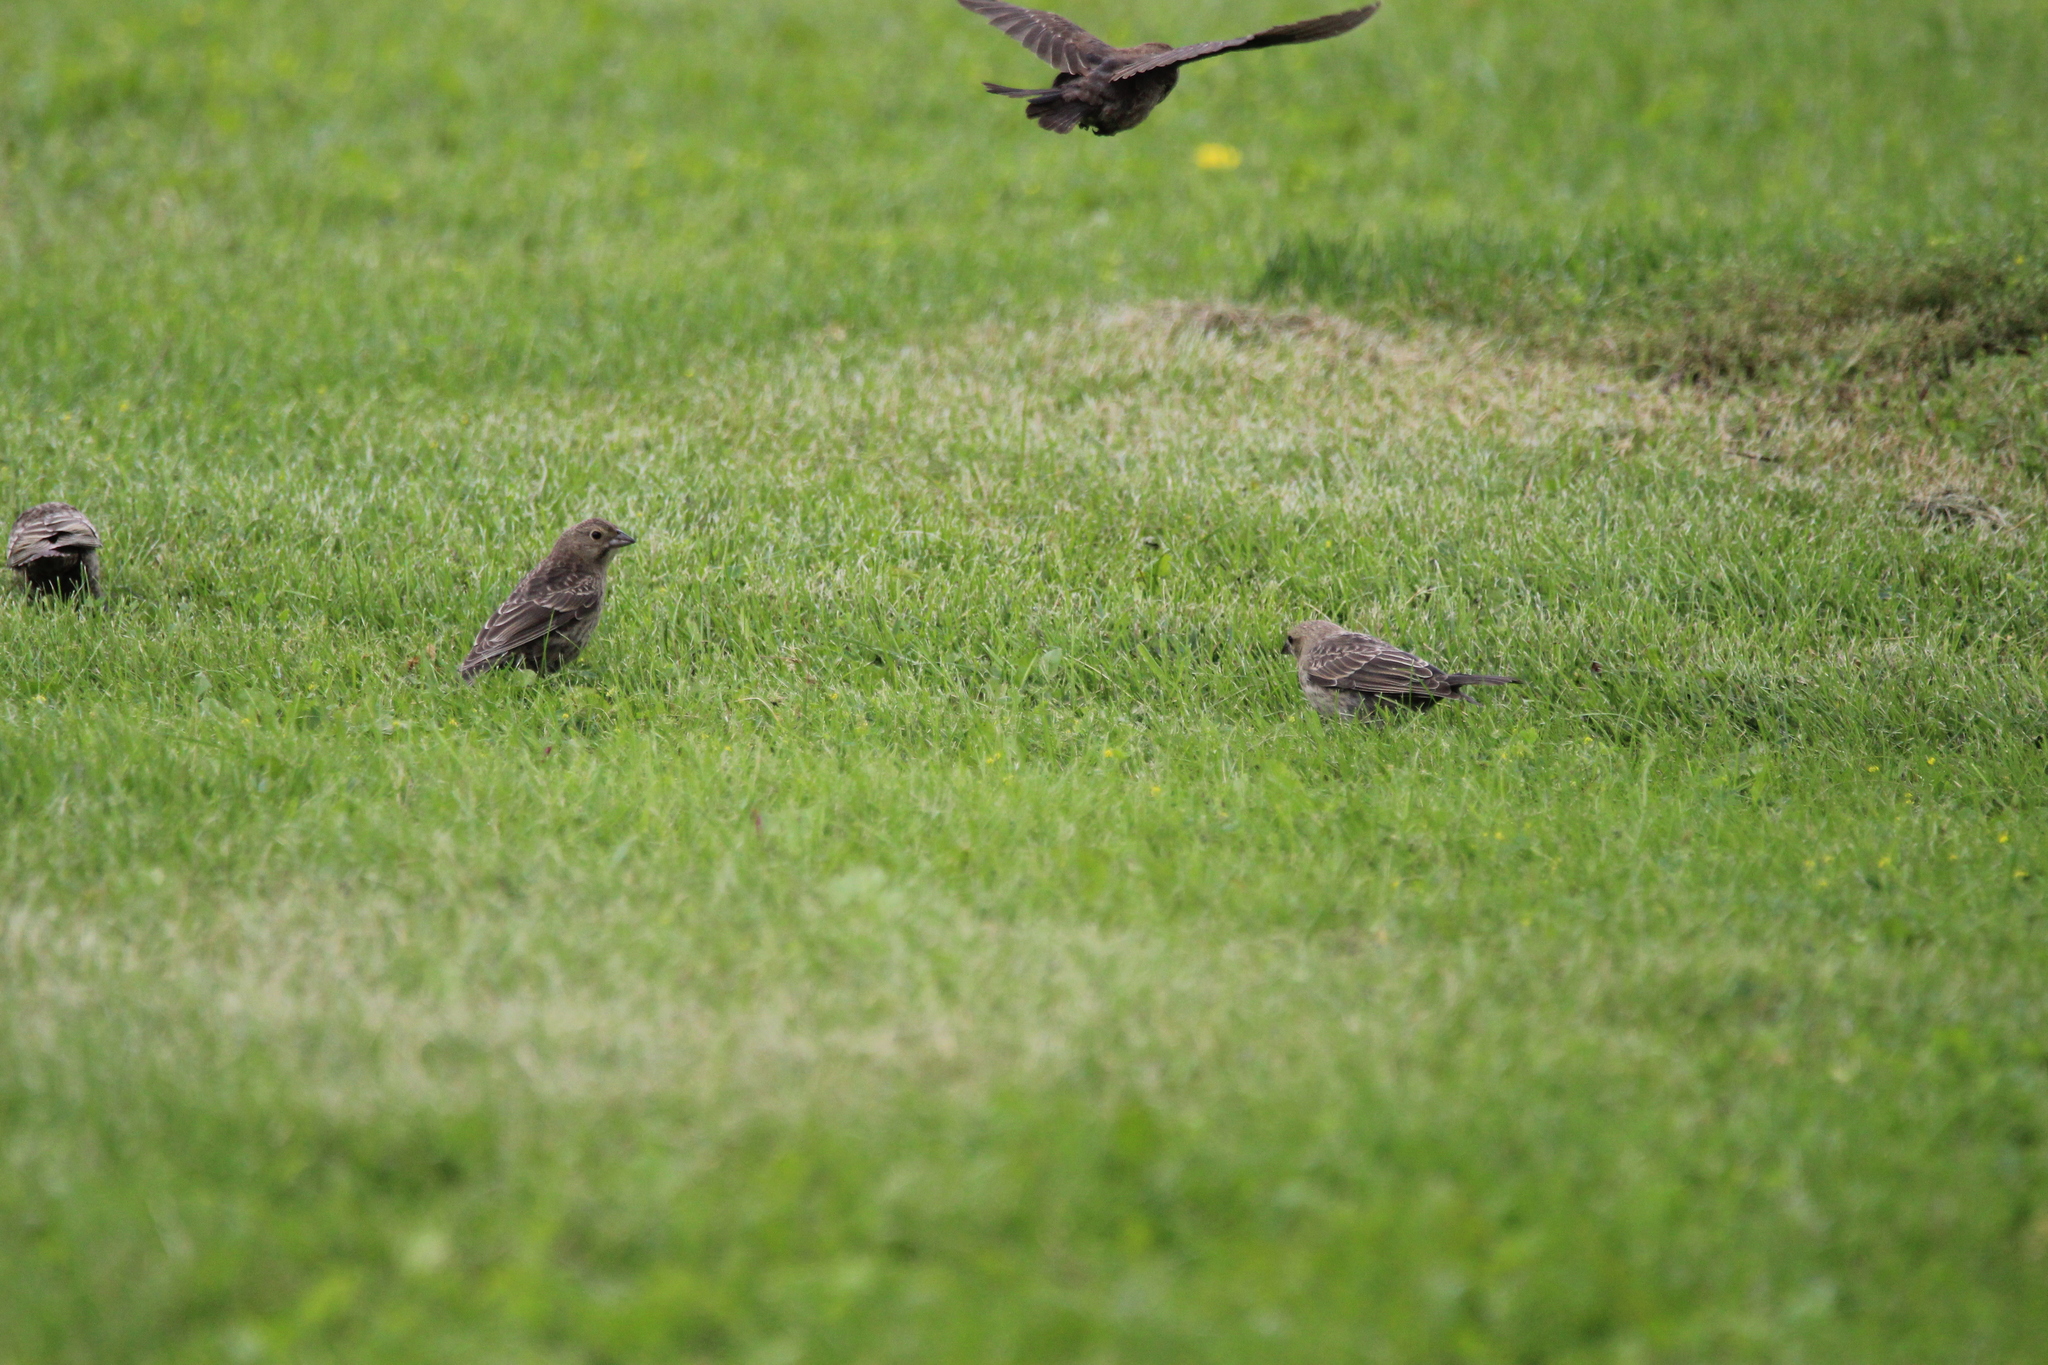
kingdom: Animalia
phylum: Chordata
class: Aves
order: Passeriformes
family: Icteridae
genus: Molothrus
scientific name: Molothrus ater
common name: Brown-headed cowbird
